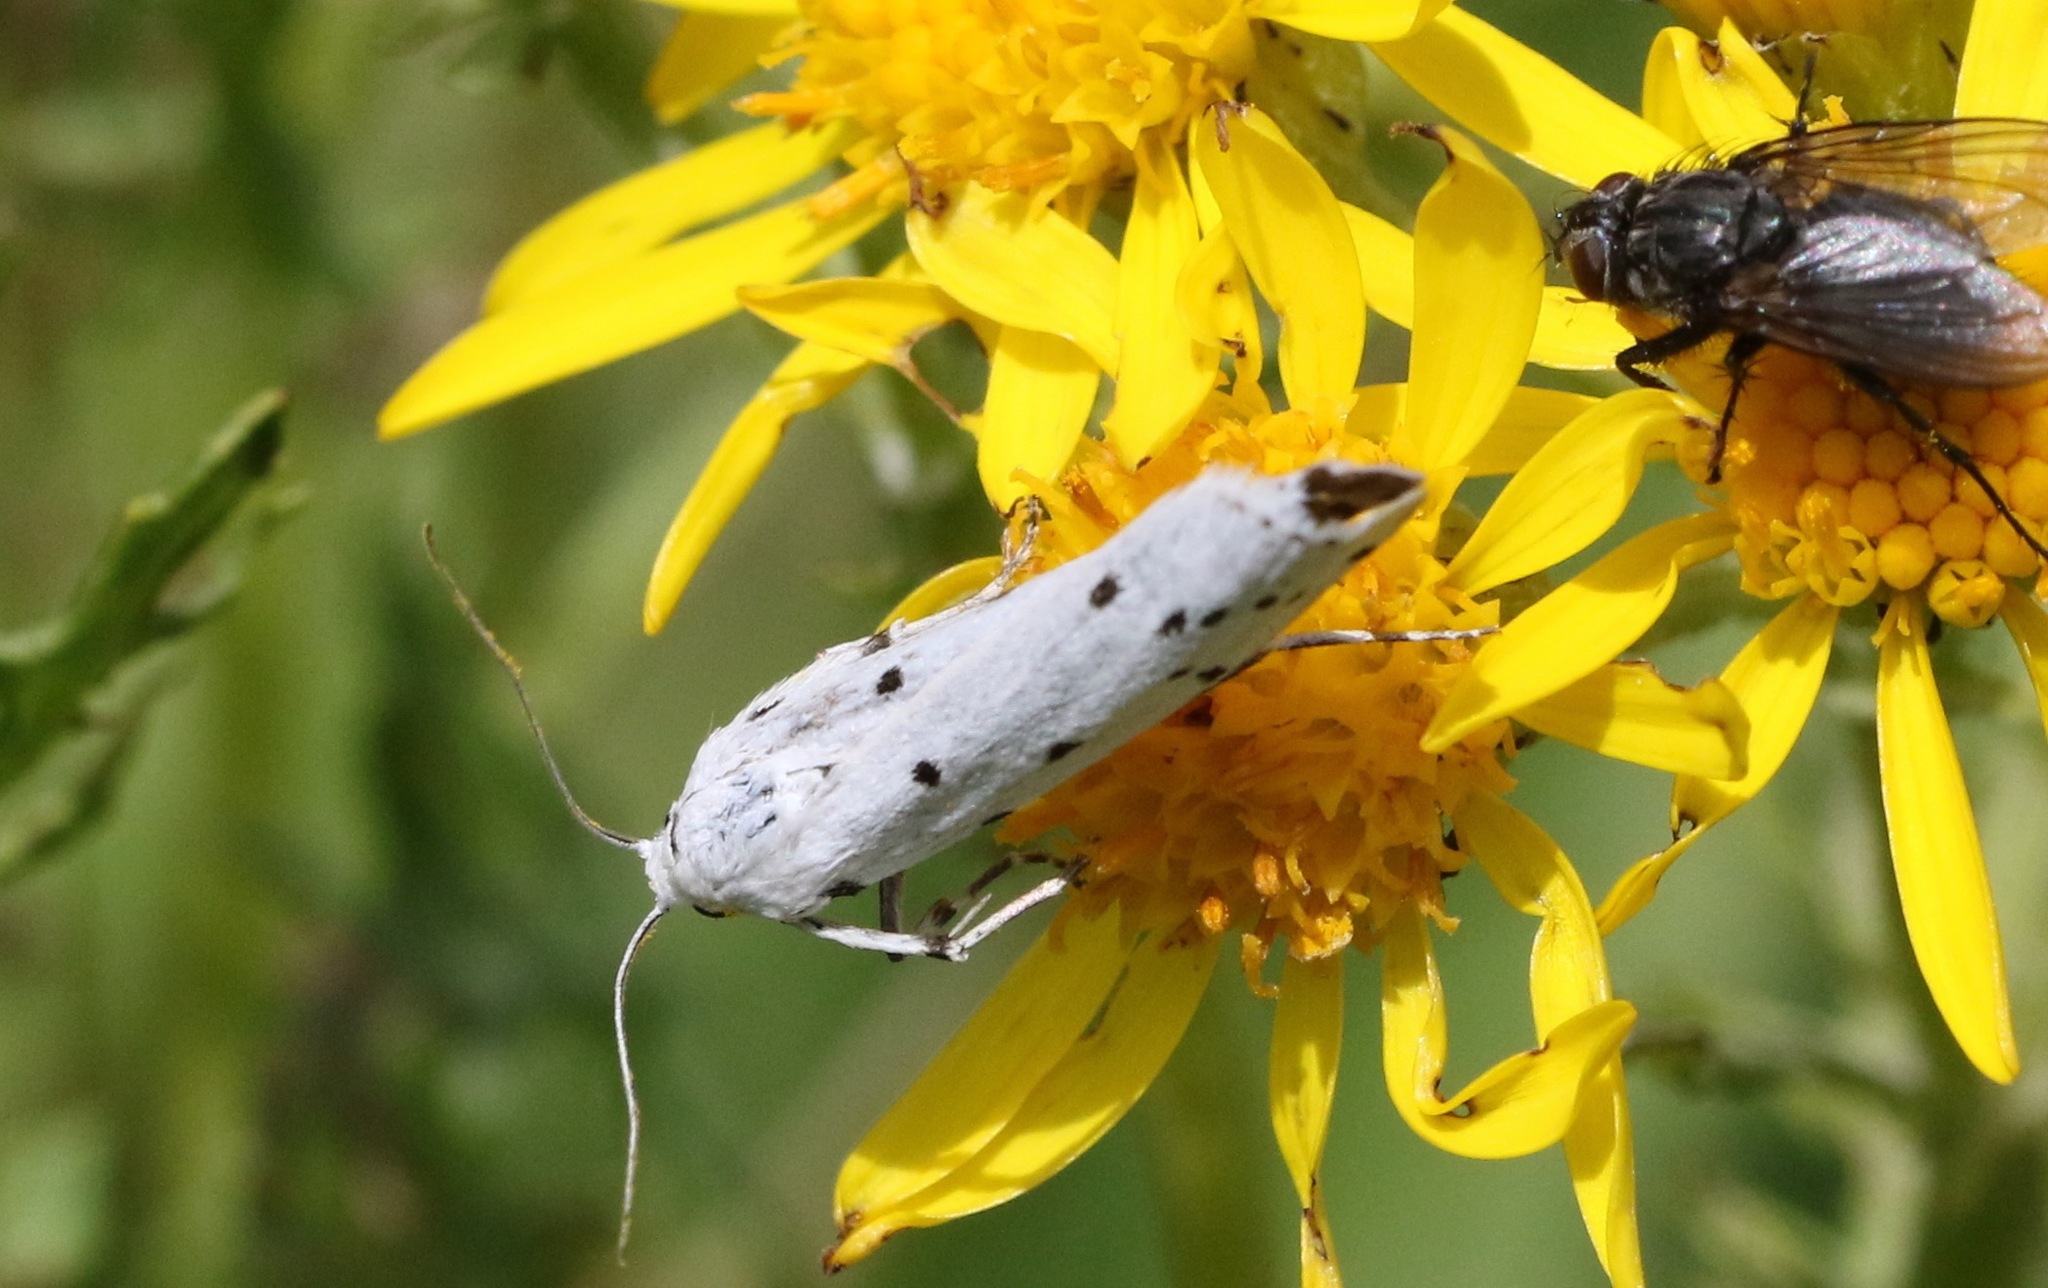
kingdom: Animalia
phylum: Arthropoda
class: Insecta
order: Lepidoptera
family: Pyralidae
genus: Myelois
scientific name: Myelois circumvoluta
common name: Thistle ermine
